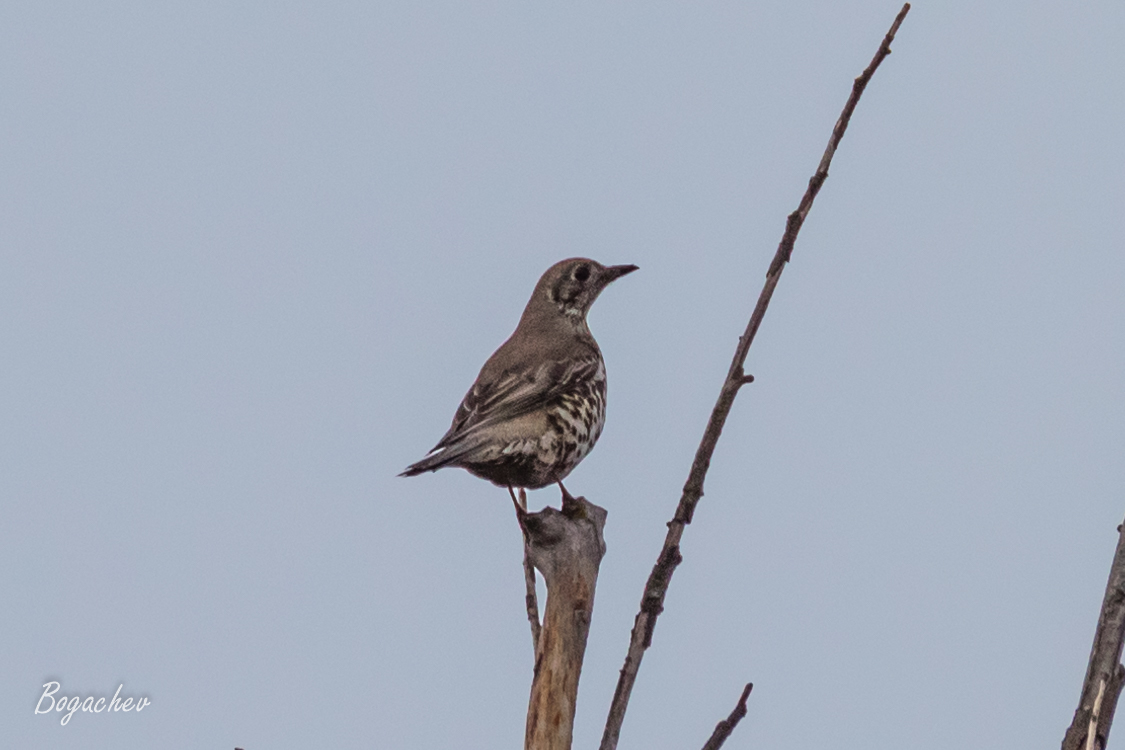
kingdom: Animalia
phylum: Chordata
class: Aves
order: Passeriformes
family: Turdidae
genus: Turdus
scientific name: Turdus viscivorus
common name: Mistle thrush
